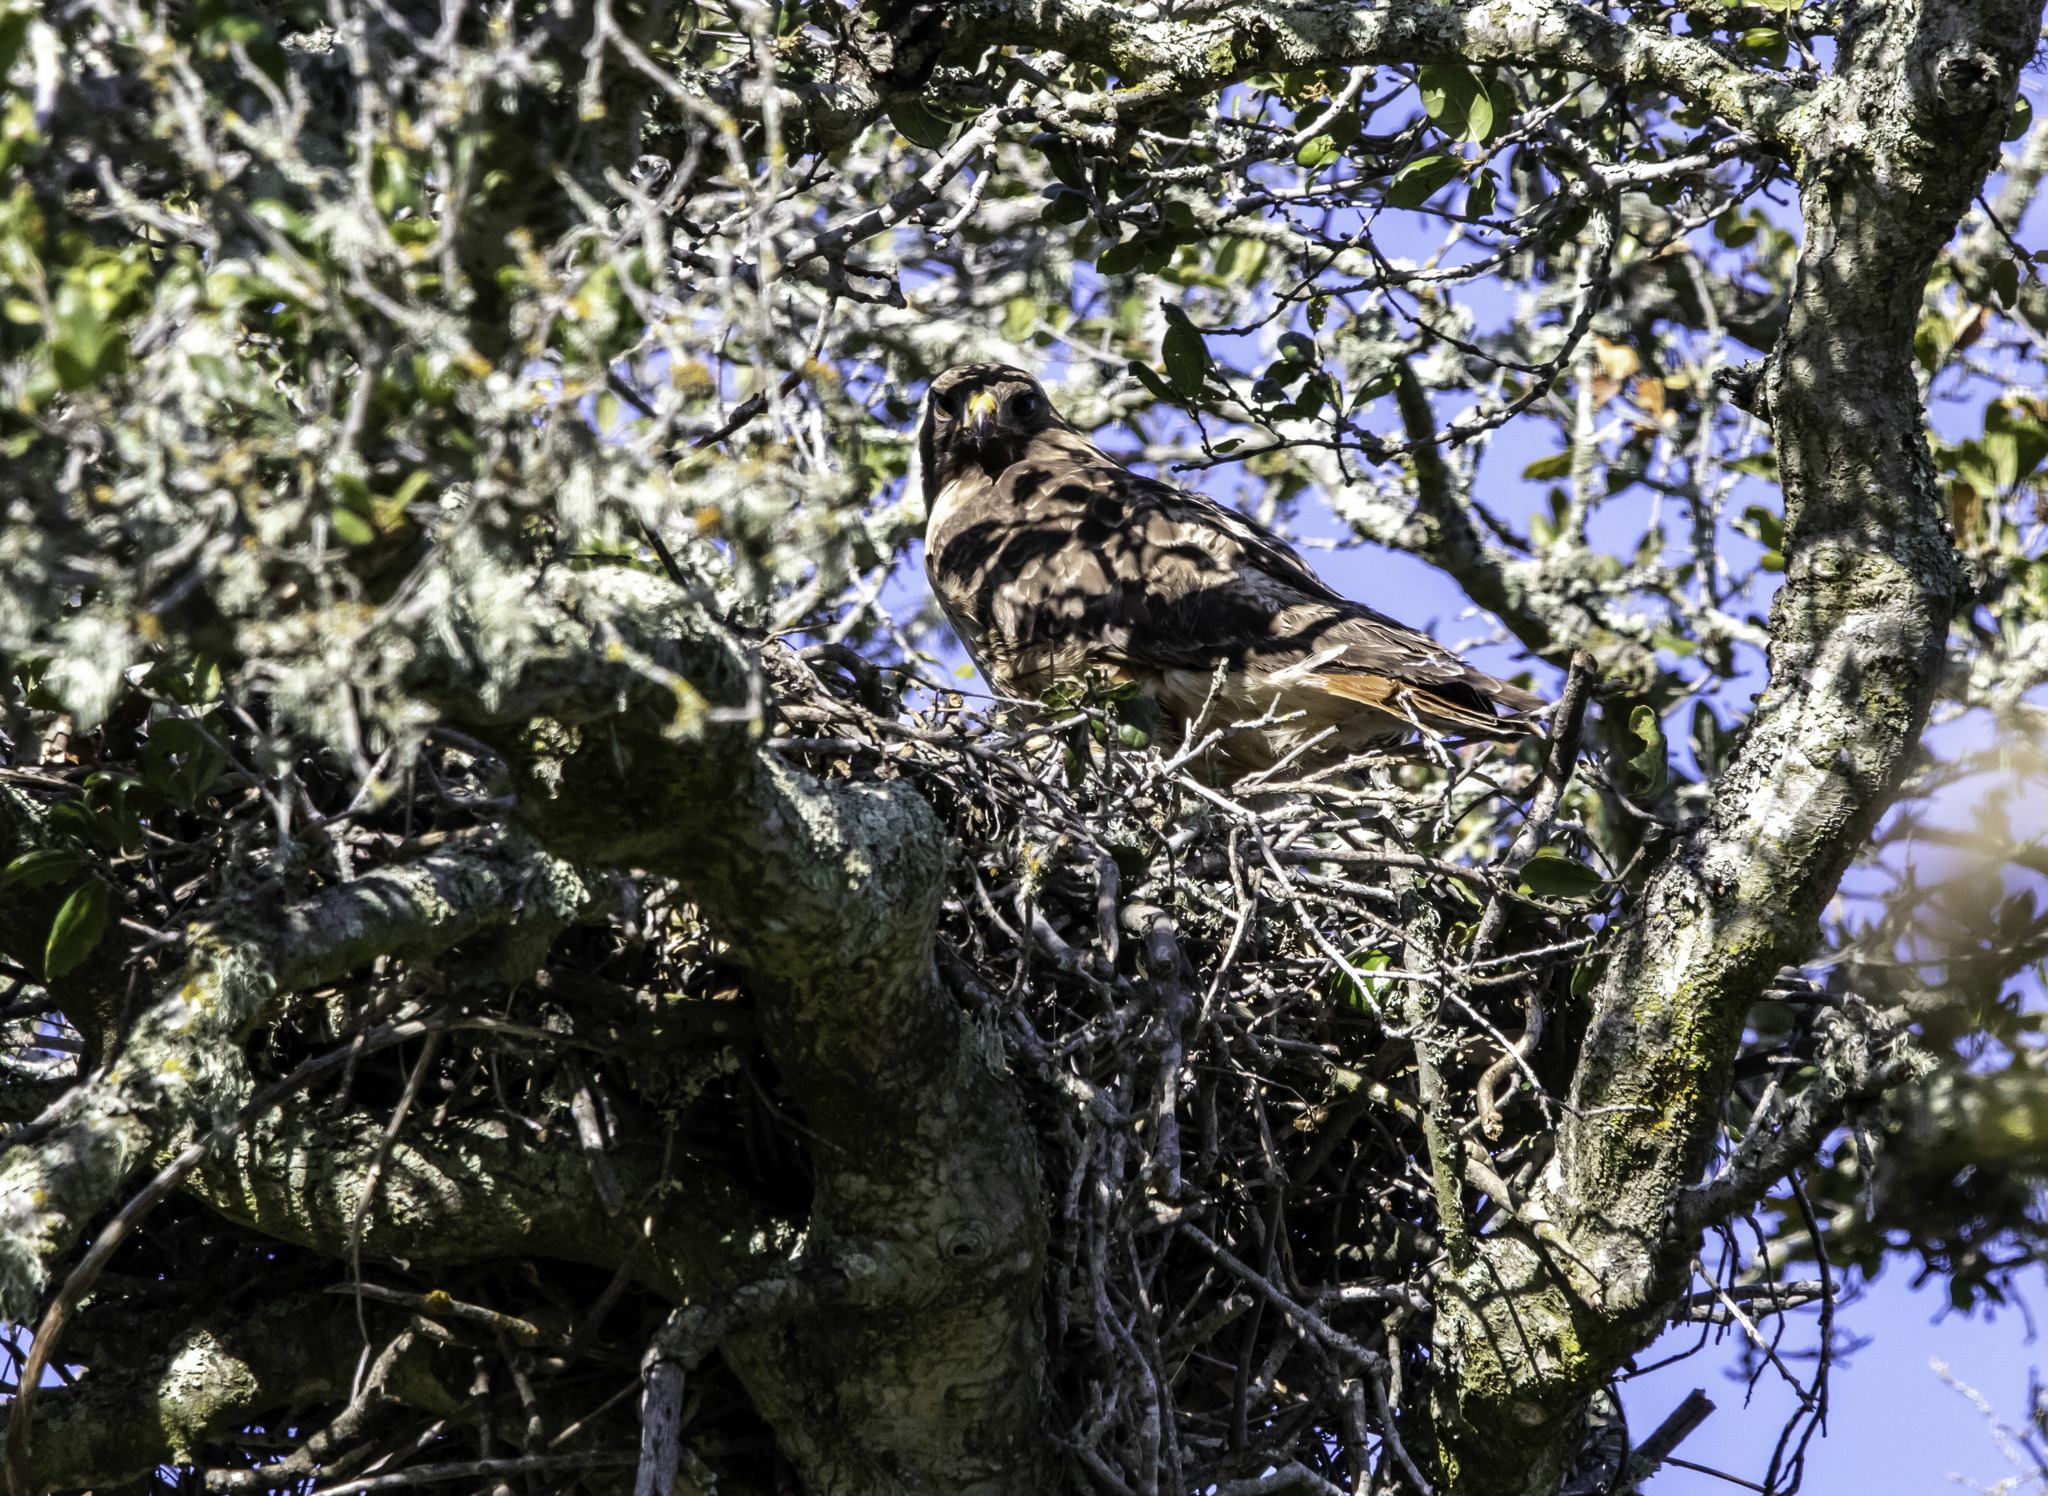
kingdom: Animalia
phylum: Chordata
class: Aves
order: Accipitriformes
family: Accipitridae
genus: Buteo
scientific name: Buteo jamaicensis
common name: Red-tailed hawk
